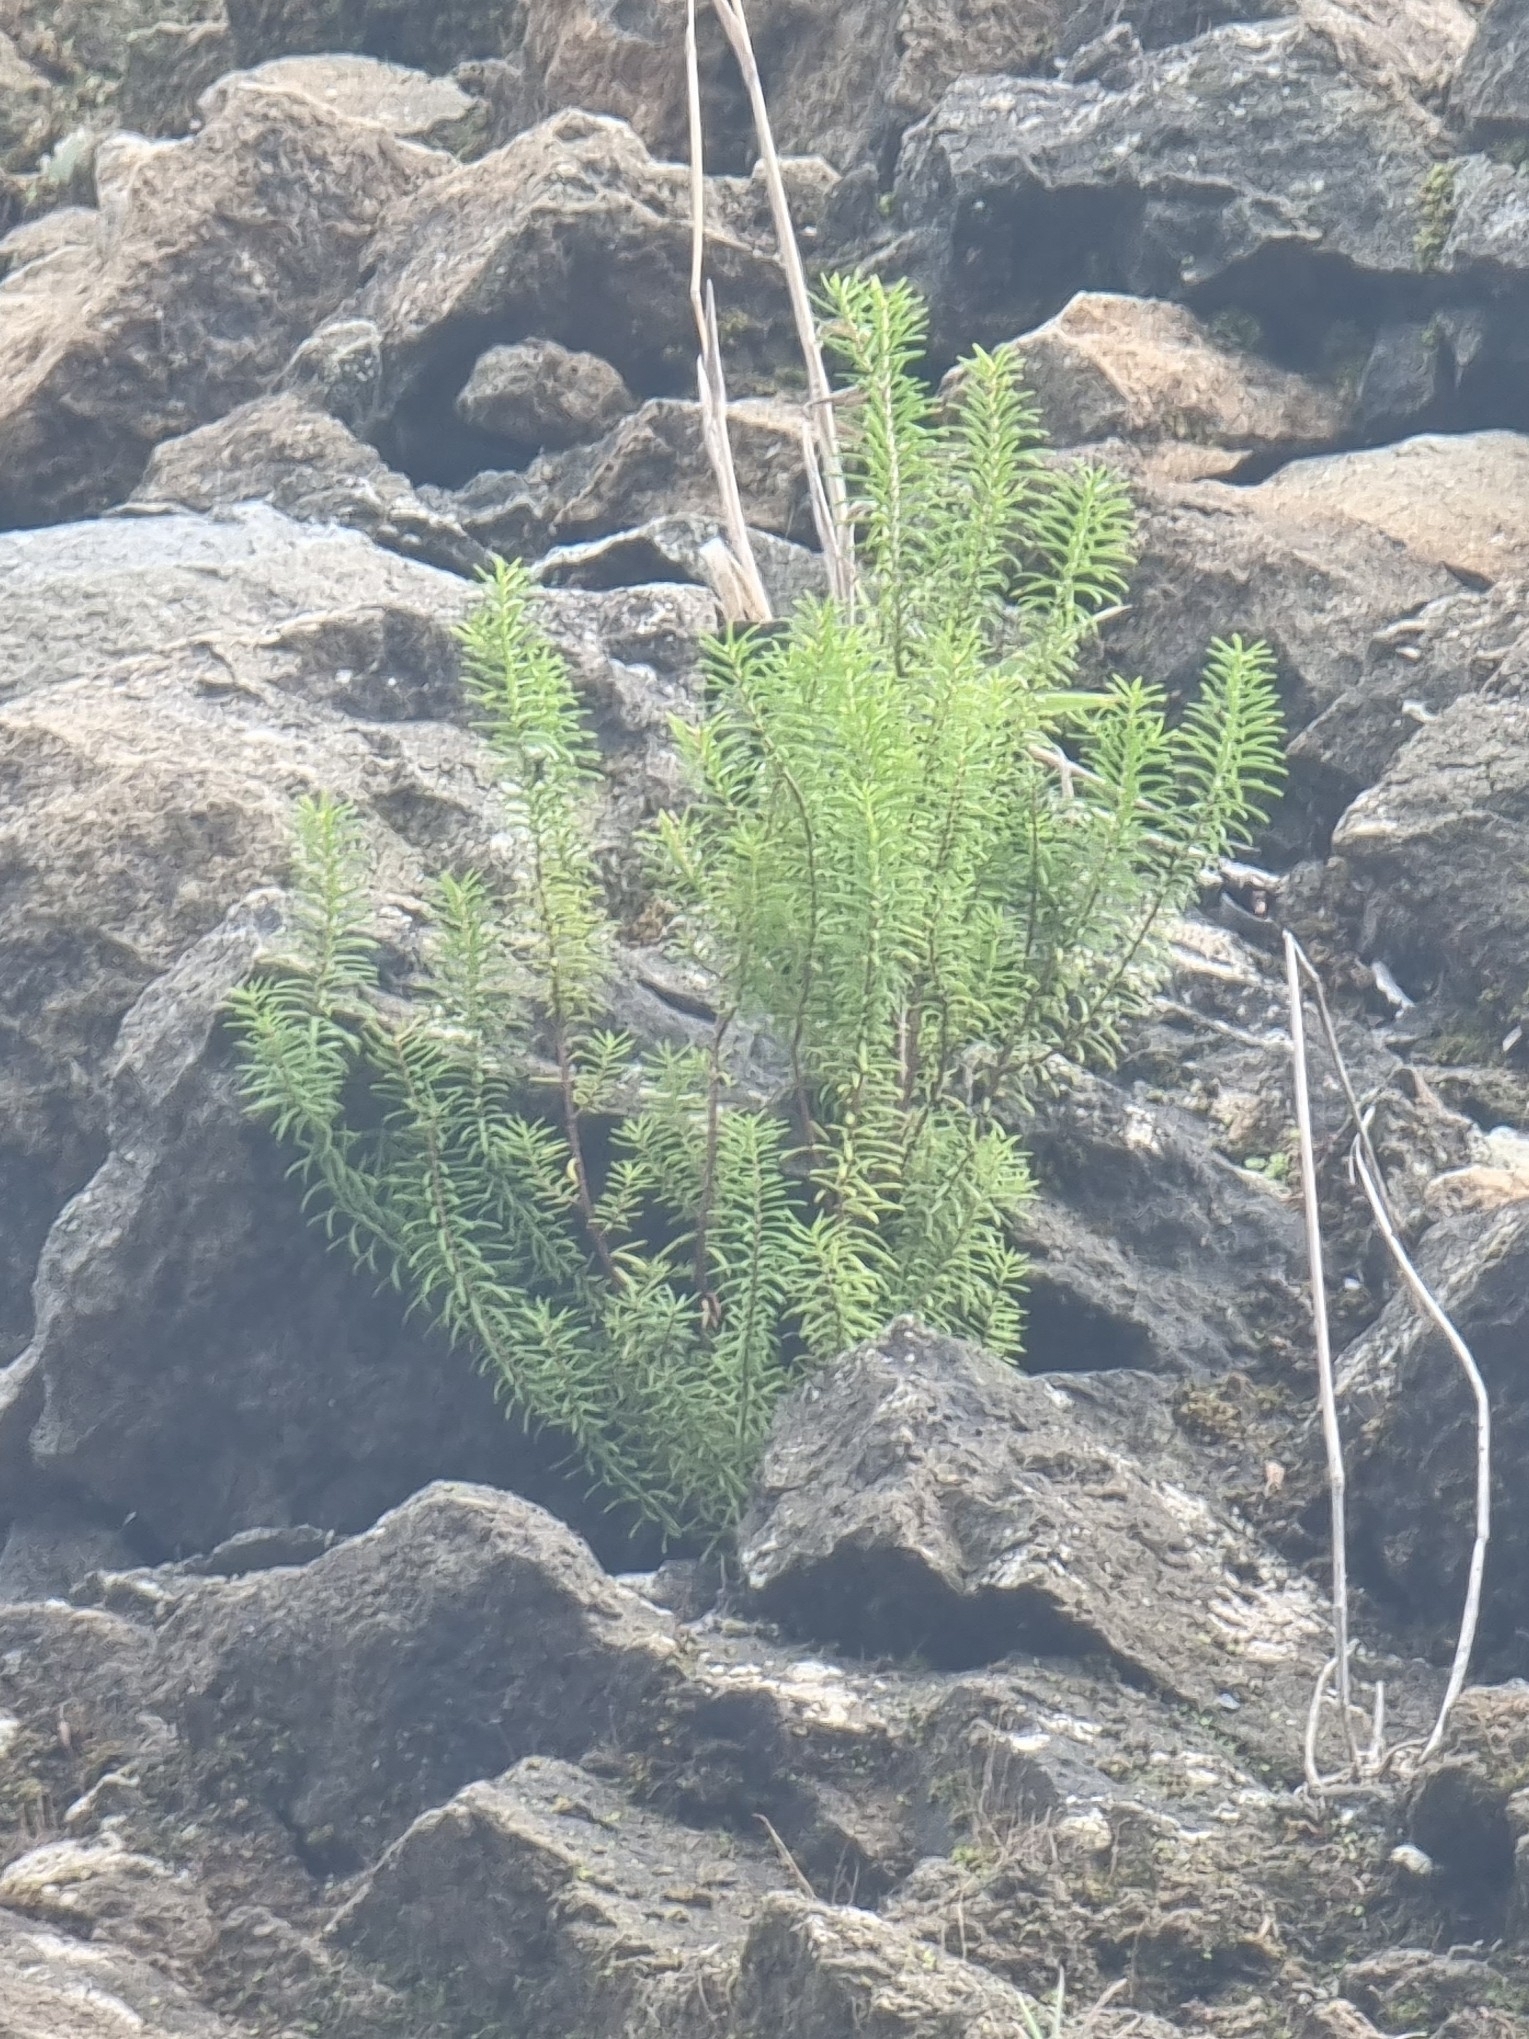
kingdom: Plantae
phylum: Tracheophyta
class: Magnoliopsida
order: Ericales
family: Ericaceae
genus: Erica
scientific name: Erica platycodon
